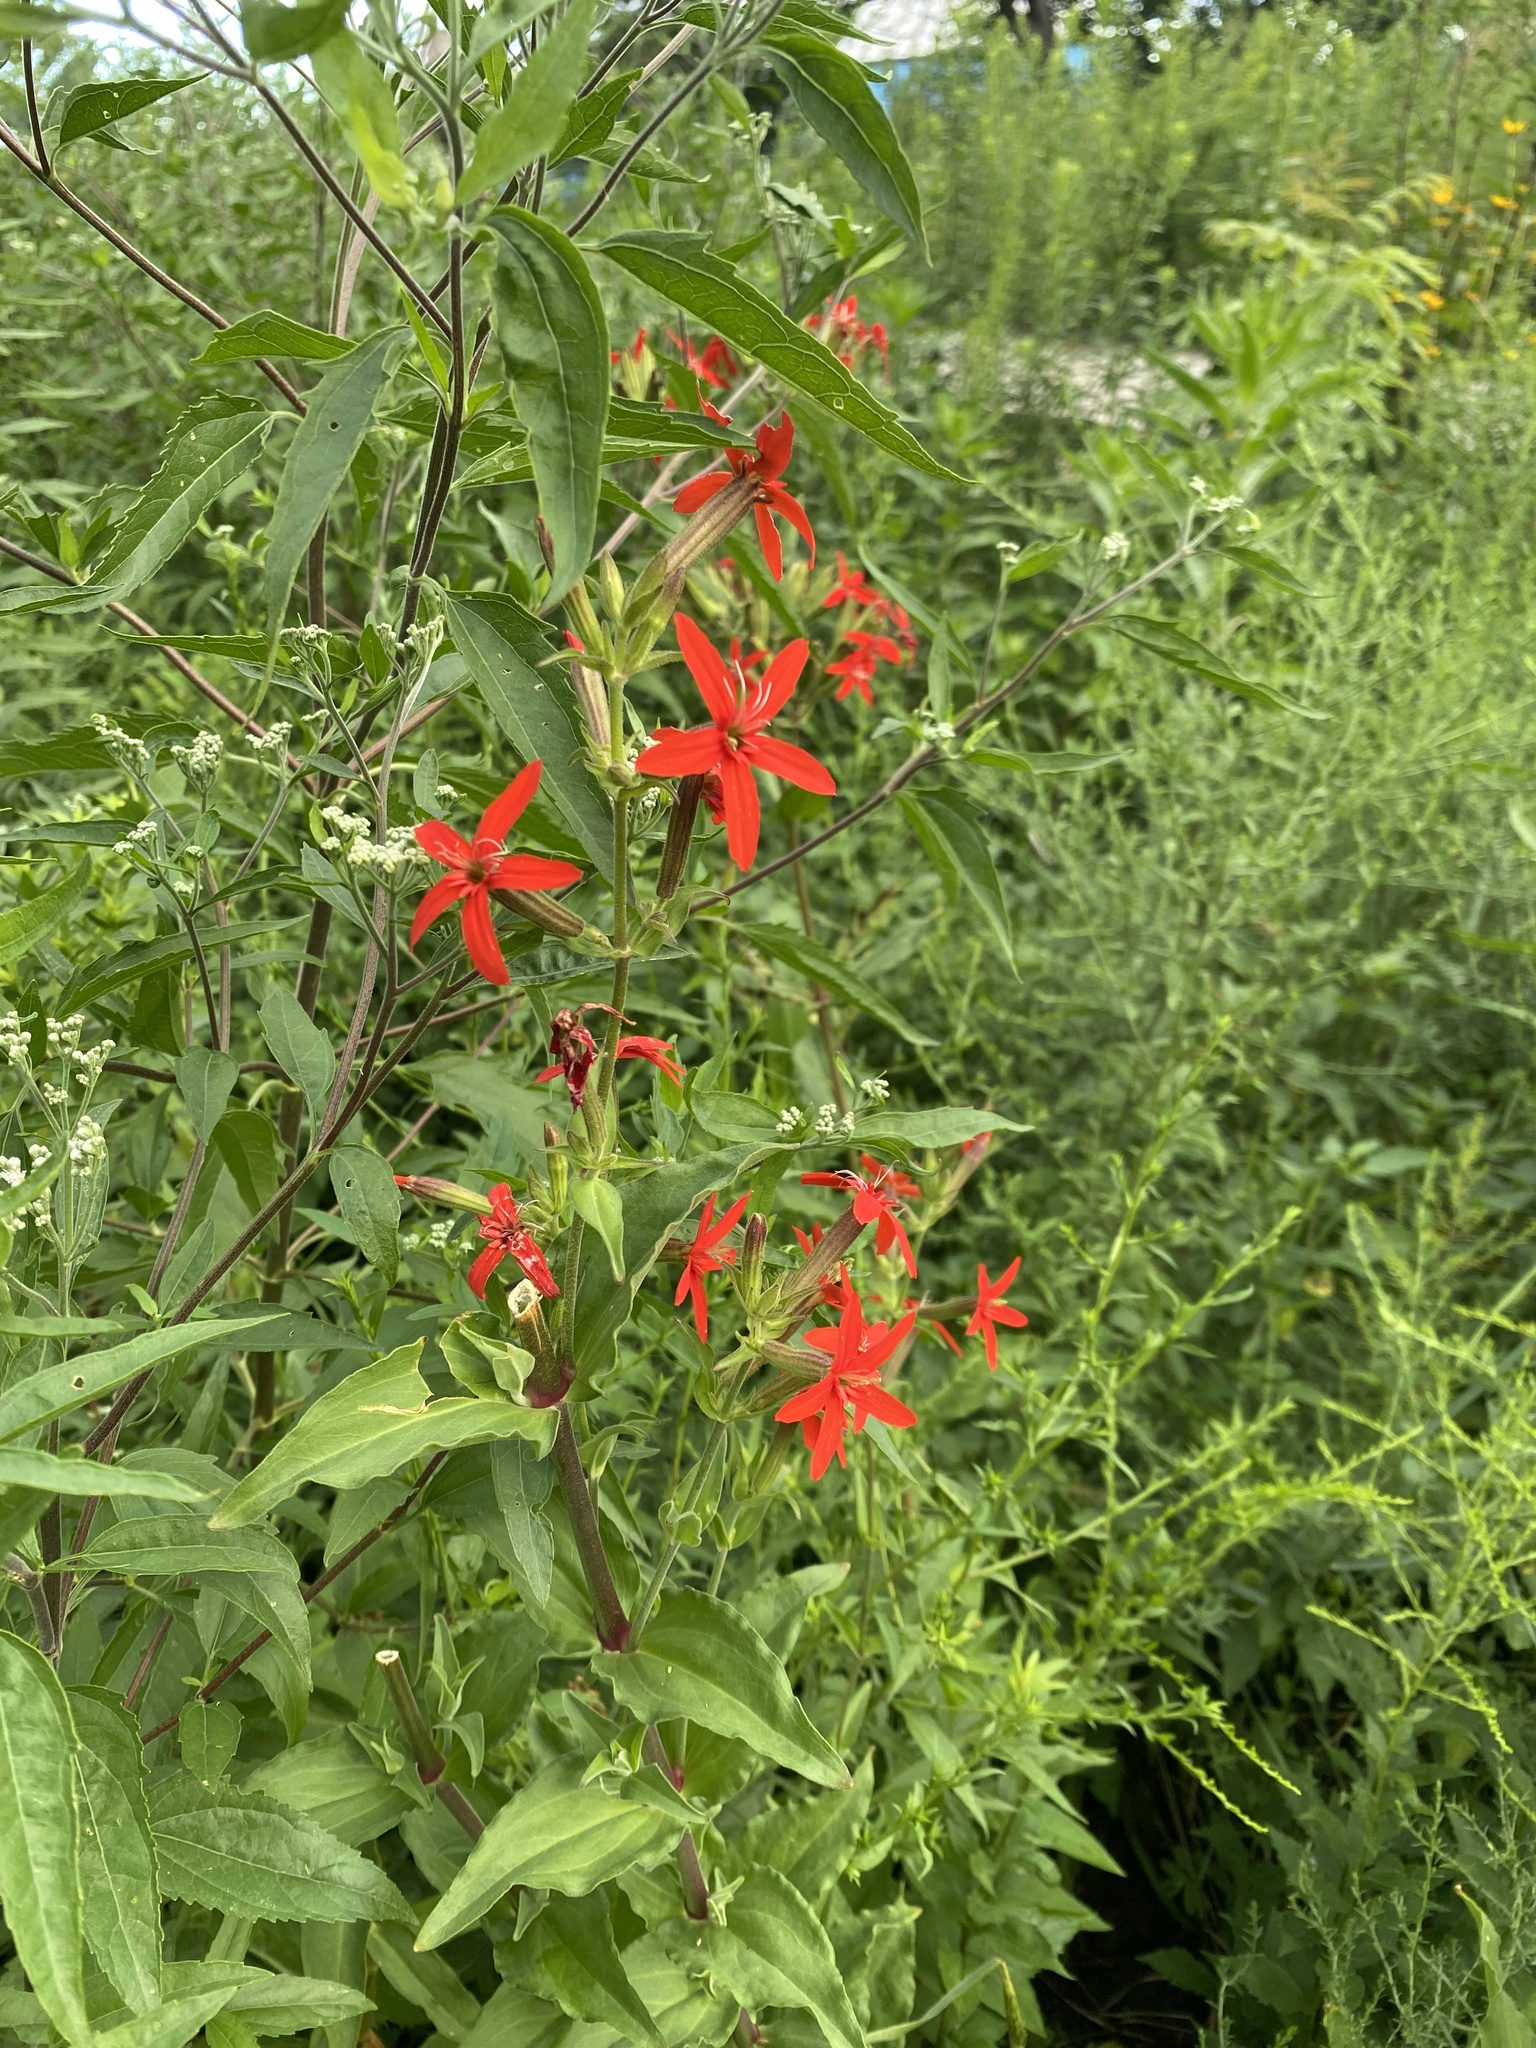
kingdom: Plantae
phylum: Tracheophyta
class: Magnoliopsida
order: Caryophyllales
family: Caryophyllaceae
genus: Silene
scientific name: Silene regia
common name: Royal catchfly
